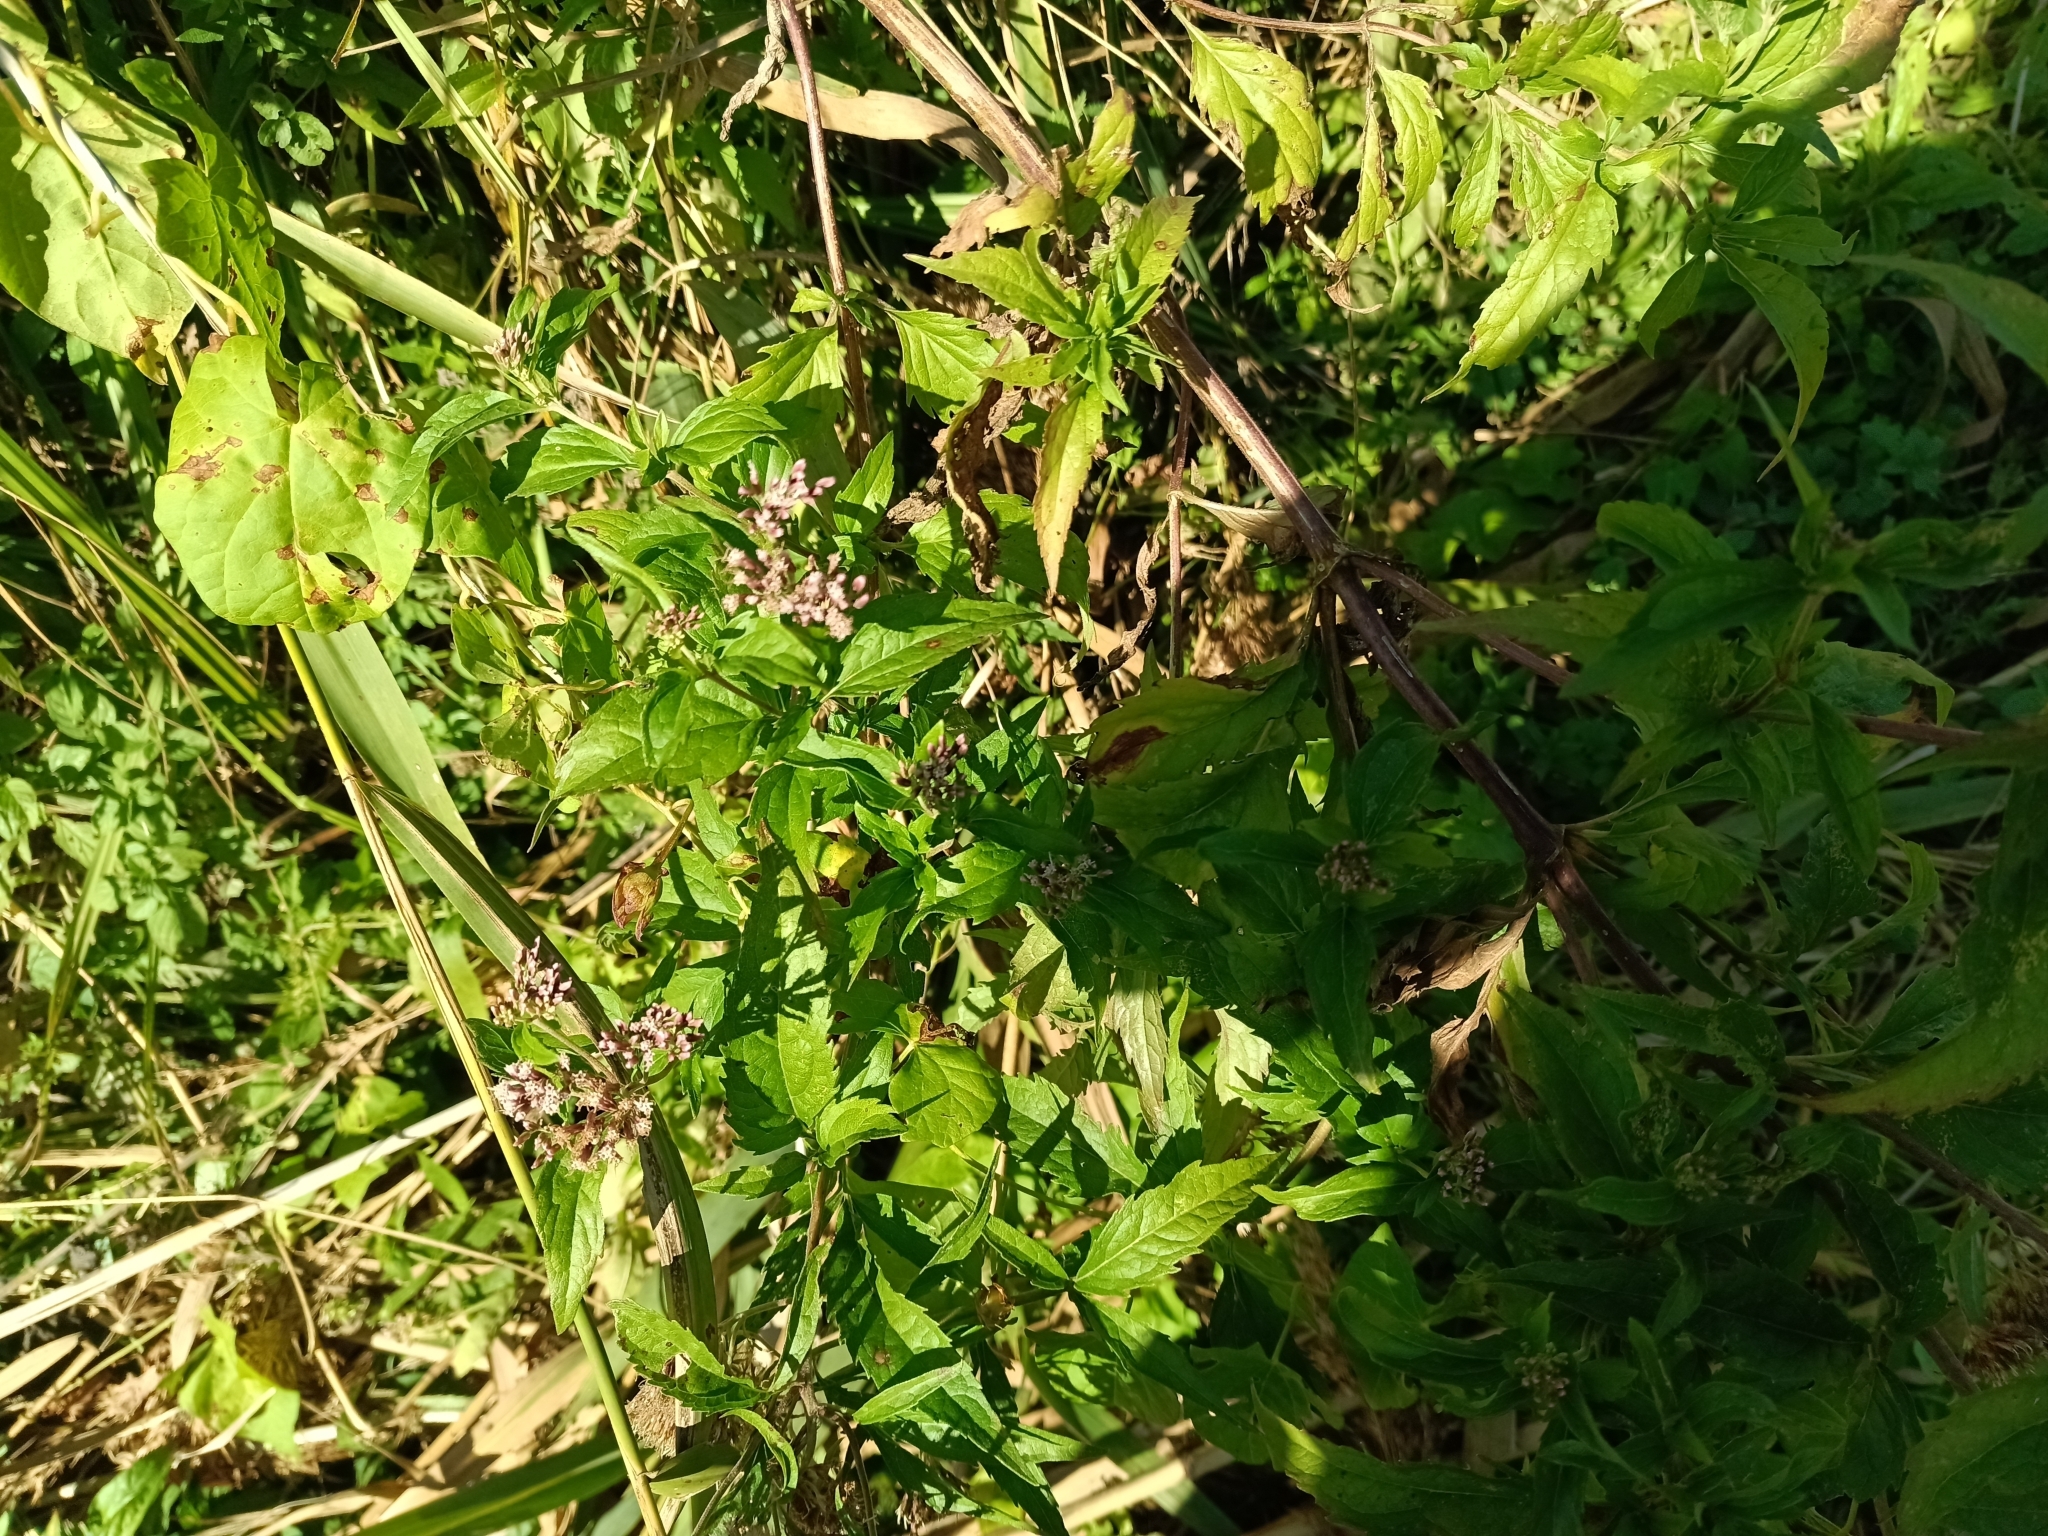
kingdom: Plantae
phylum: Tracheophyta
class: Magnoliopsida
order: Asterales
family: Asteraceae
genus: Eupatorium
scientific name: Eupatorium cannabinum
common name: Hemp-agrimony
